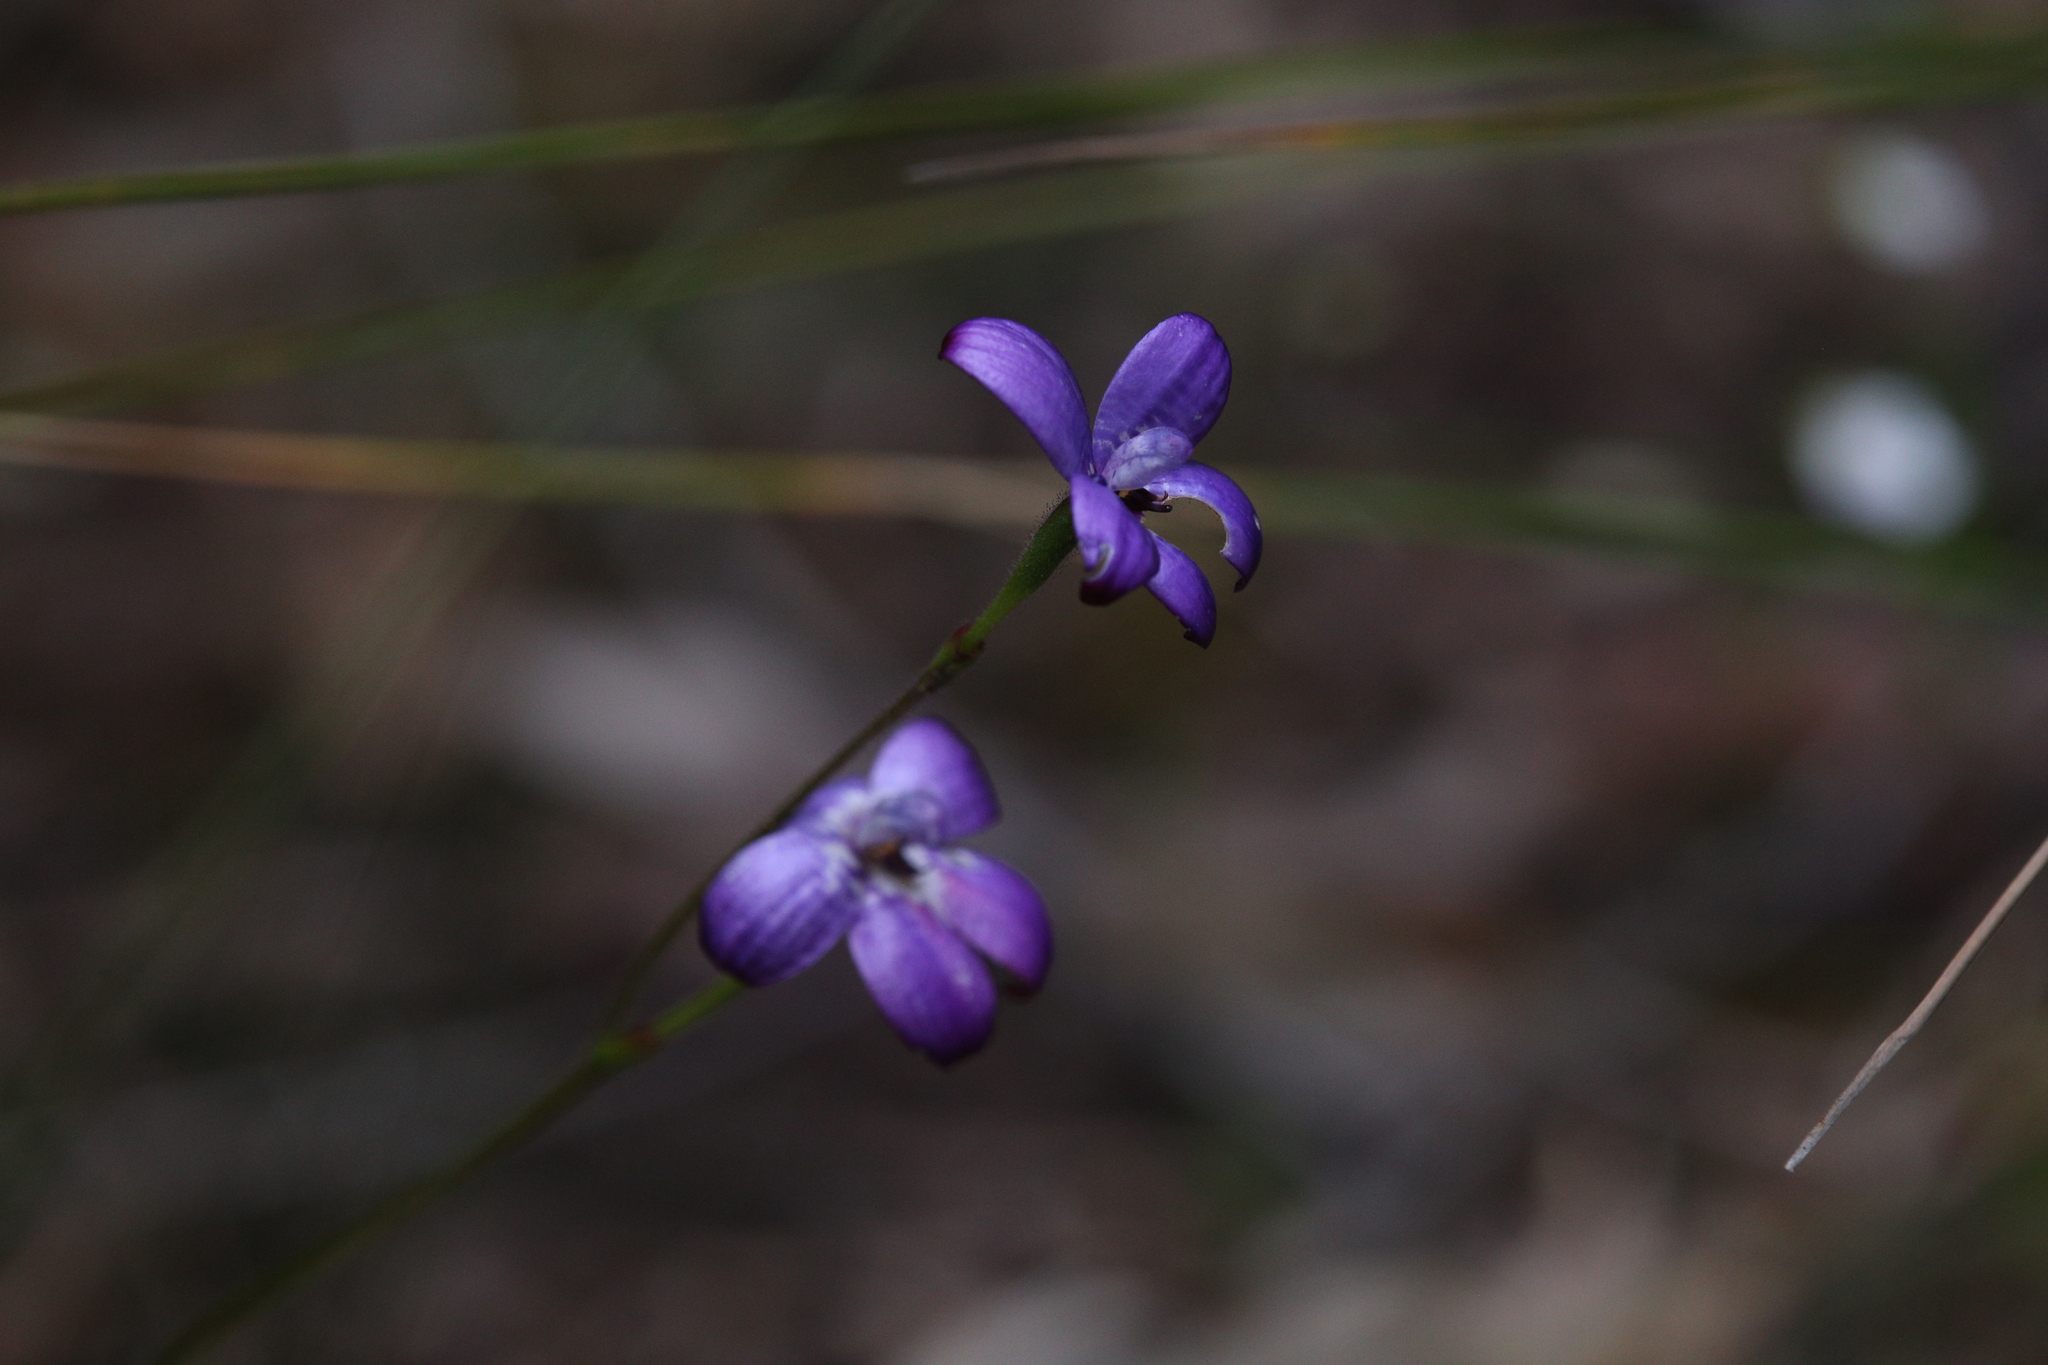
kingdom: Plantae
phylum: Tracheophyta
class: Liliopsida
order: Asparagales
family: Orchidaceae
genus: Caladenia
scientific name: Caladenia brunonis
